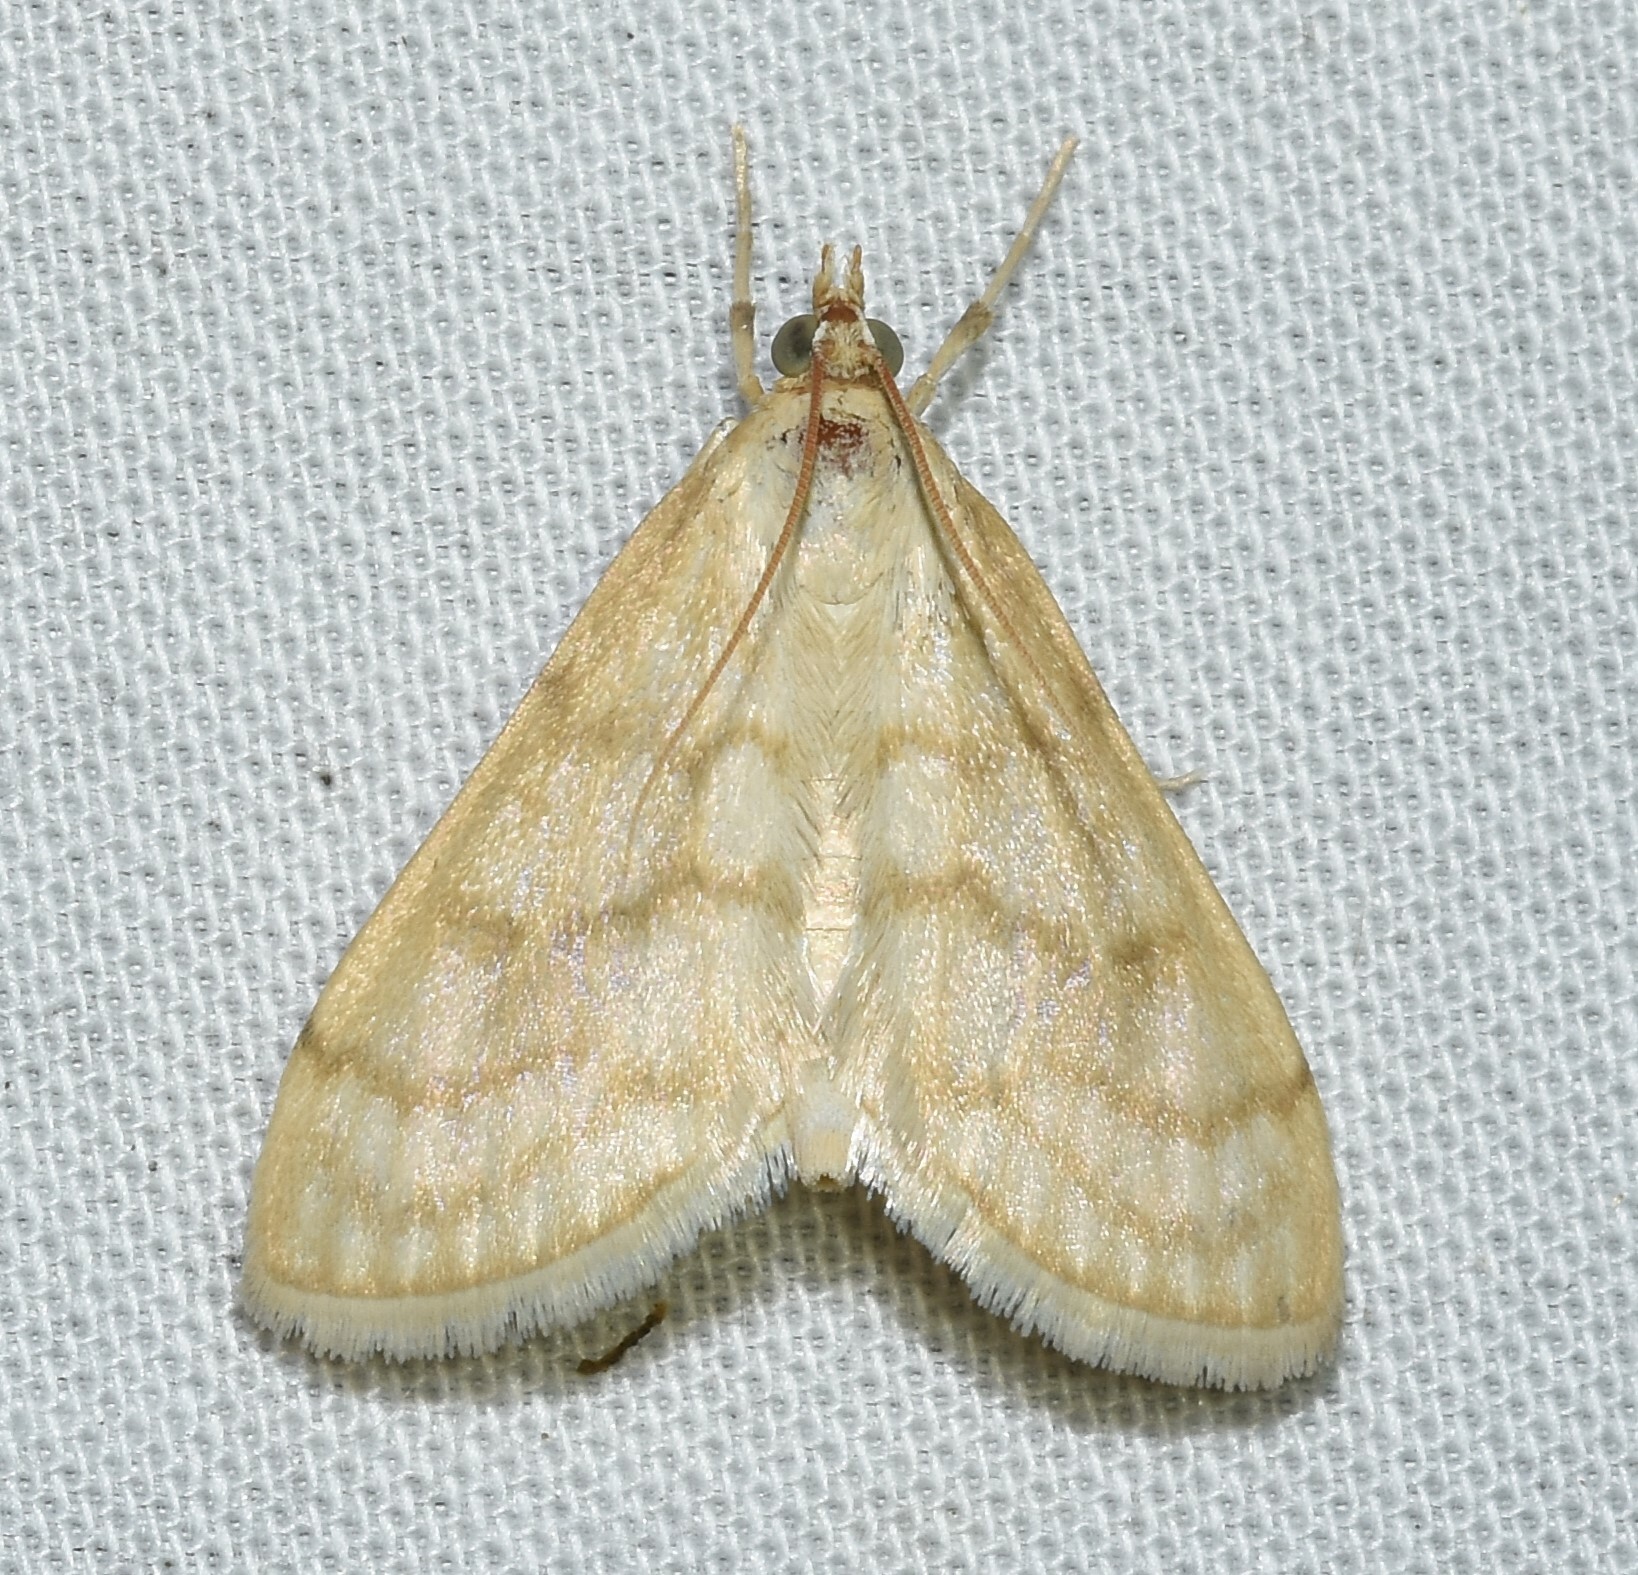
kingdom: Animalia
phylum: Arthropoda
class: Insecta
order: Lepidoptera
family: Crambidae
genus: Paracorsia
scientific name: Paracorsia repandalis
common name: Mullein moth
